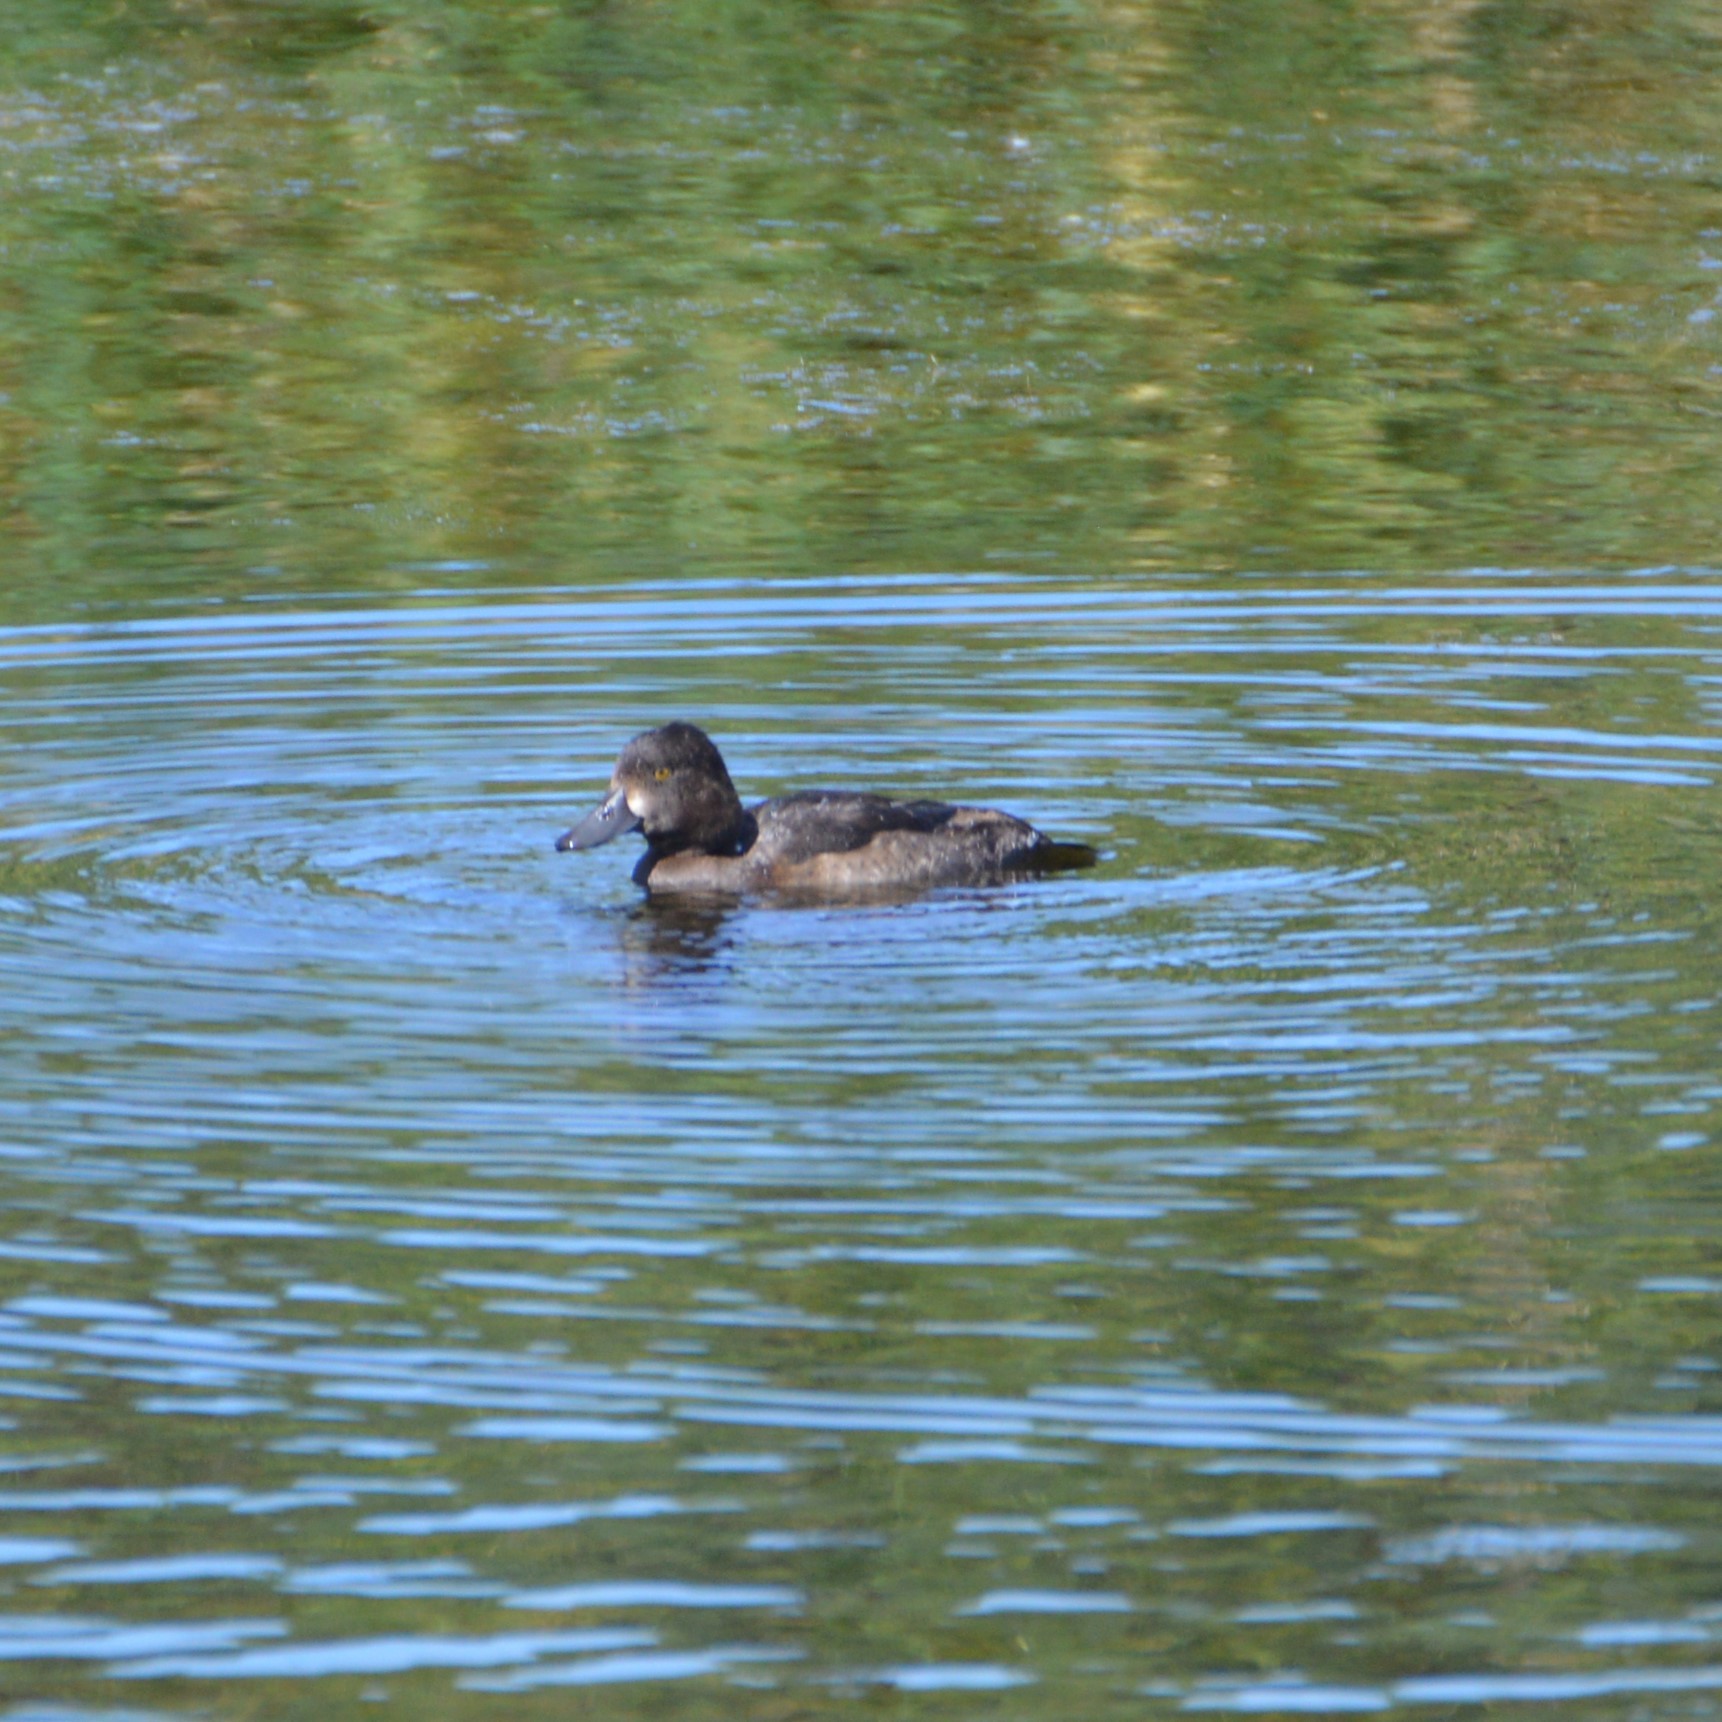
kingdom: Animalia
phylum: Chordata
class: Aves
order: Anseriformes
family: Anatidae
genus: Aythya
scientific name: Aythya fuligula
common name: Tufted duck
